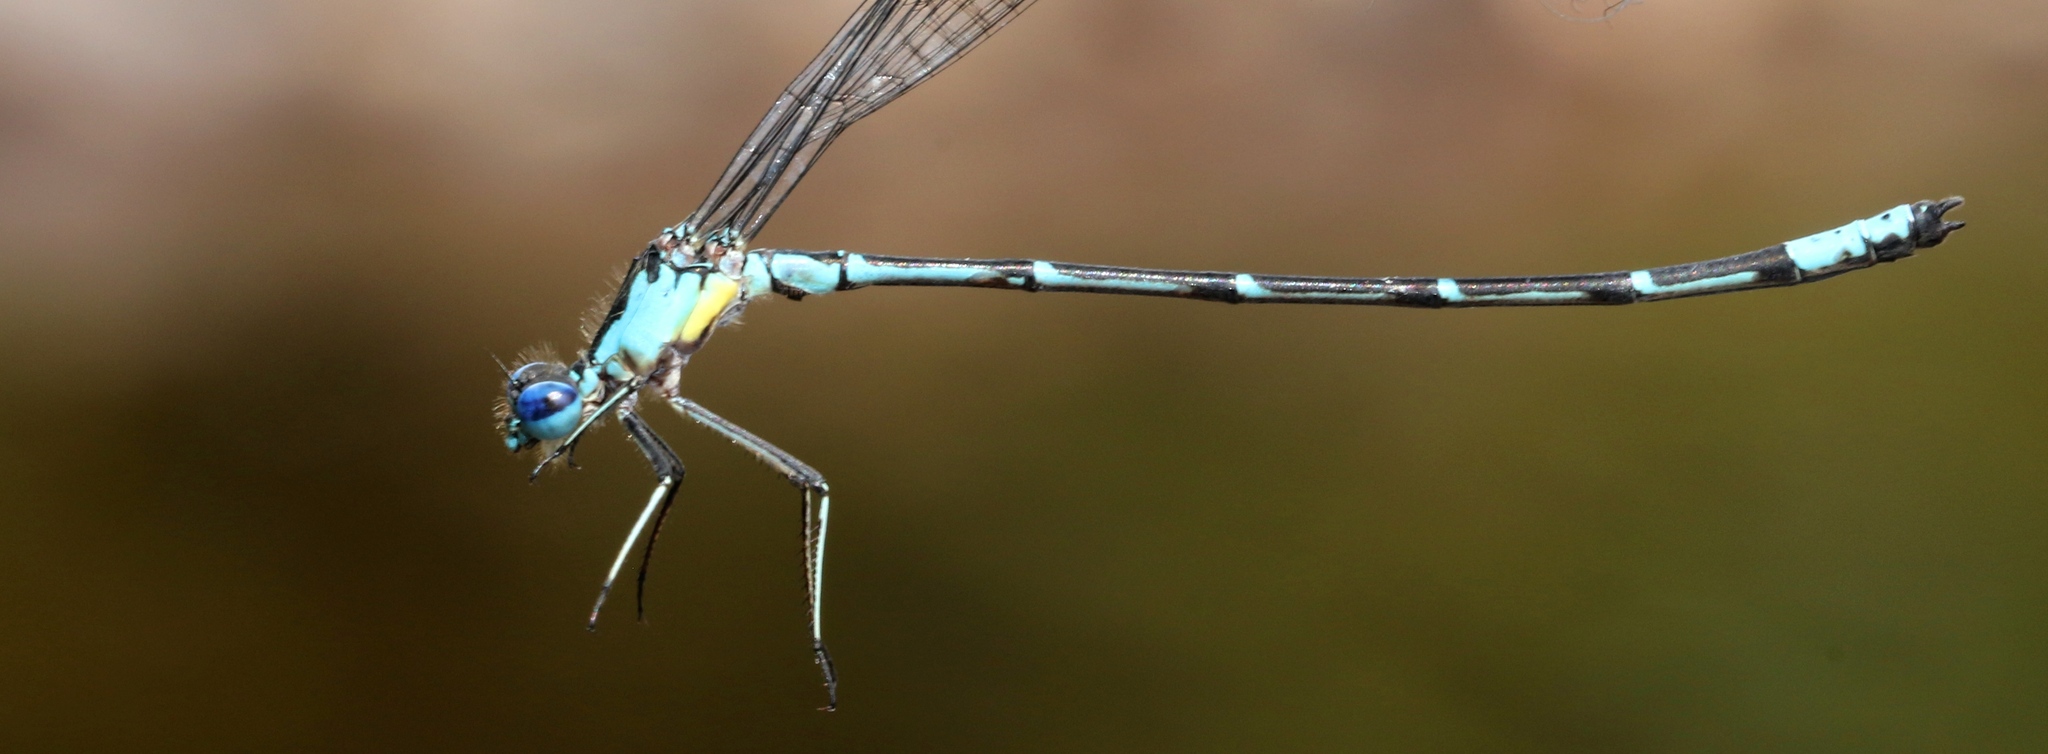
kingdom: Animalia
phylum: Arthropoda
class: Insecta
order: Odonata
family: Coenagrionidae
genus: Chromagrion
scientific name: Chromagrion conditum
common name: Aurora damsel
